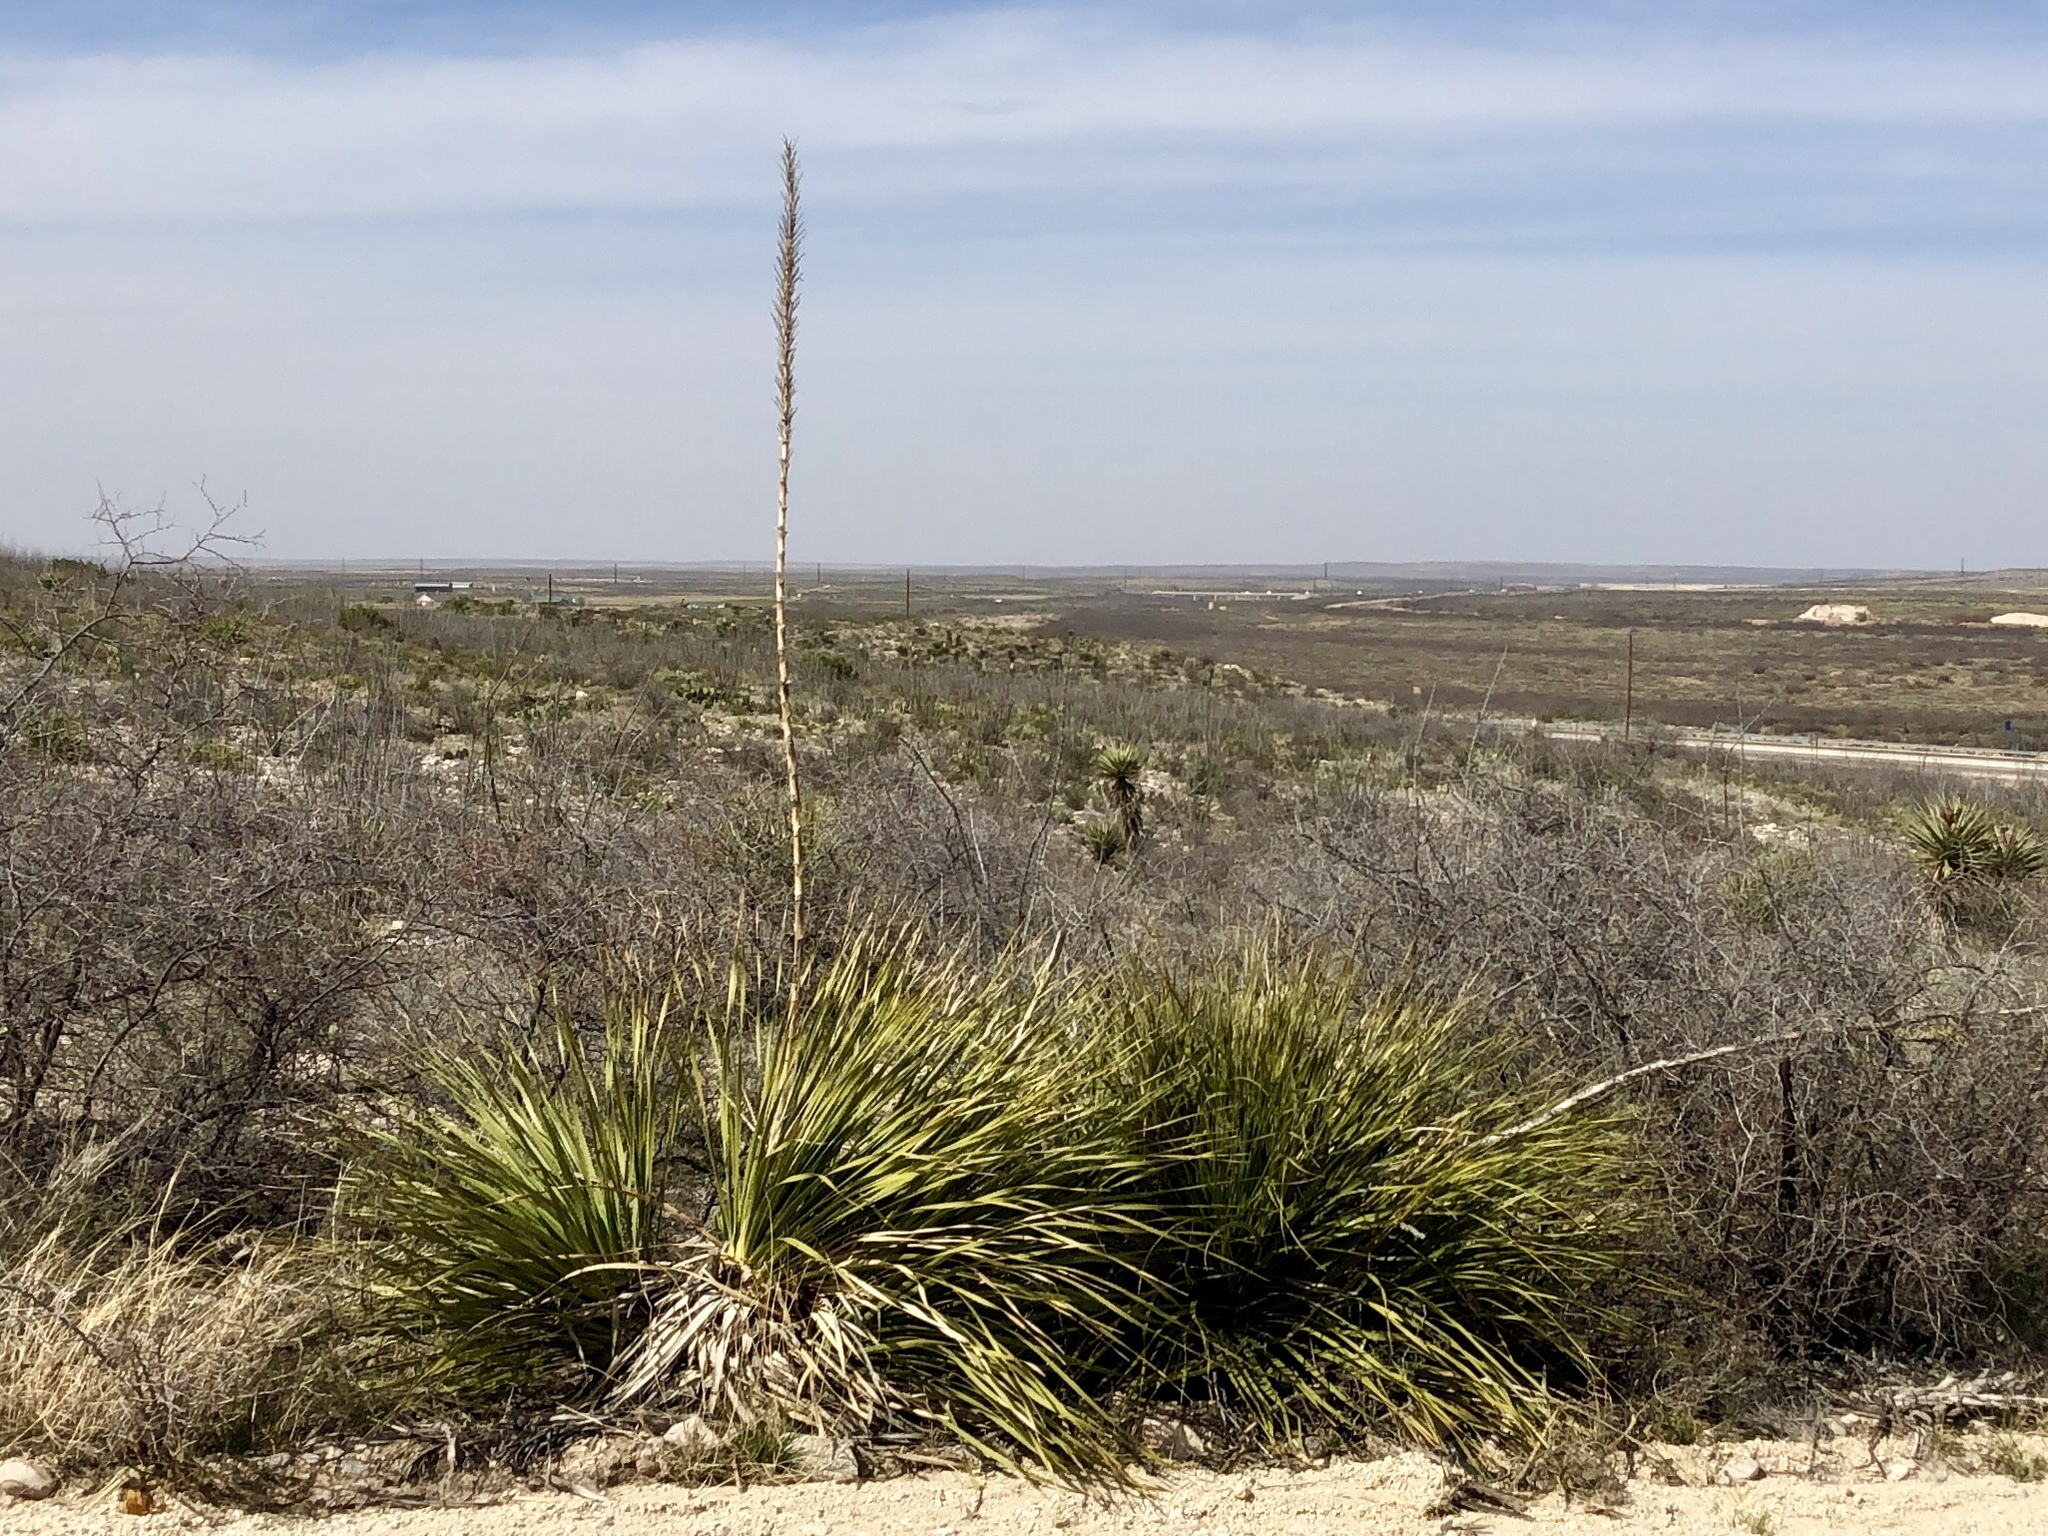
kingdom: Plantae
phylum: Tracheophyta
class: Liliopsida
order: Asparagales
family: Asparagaceae
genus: Dasylirion
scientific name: Dasylirion leiophyllum
